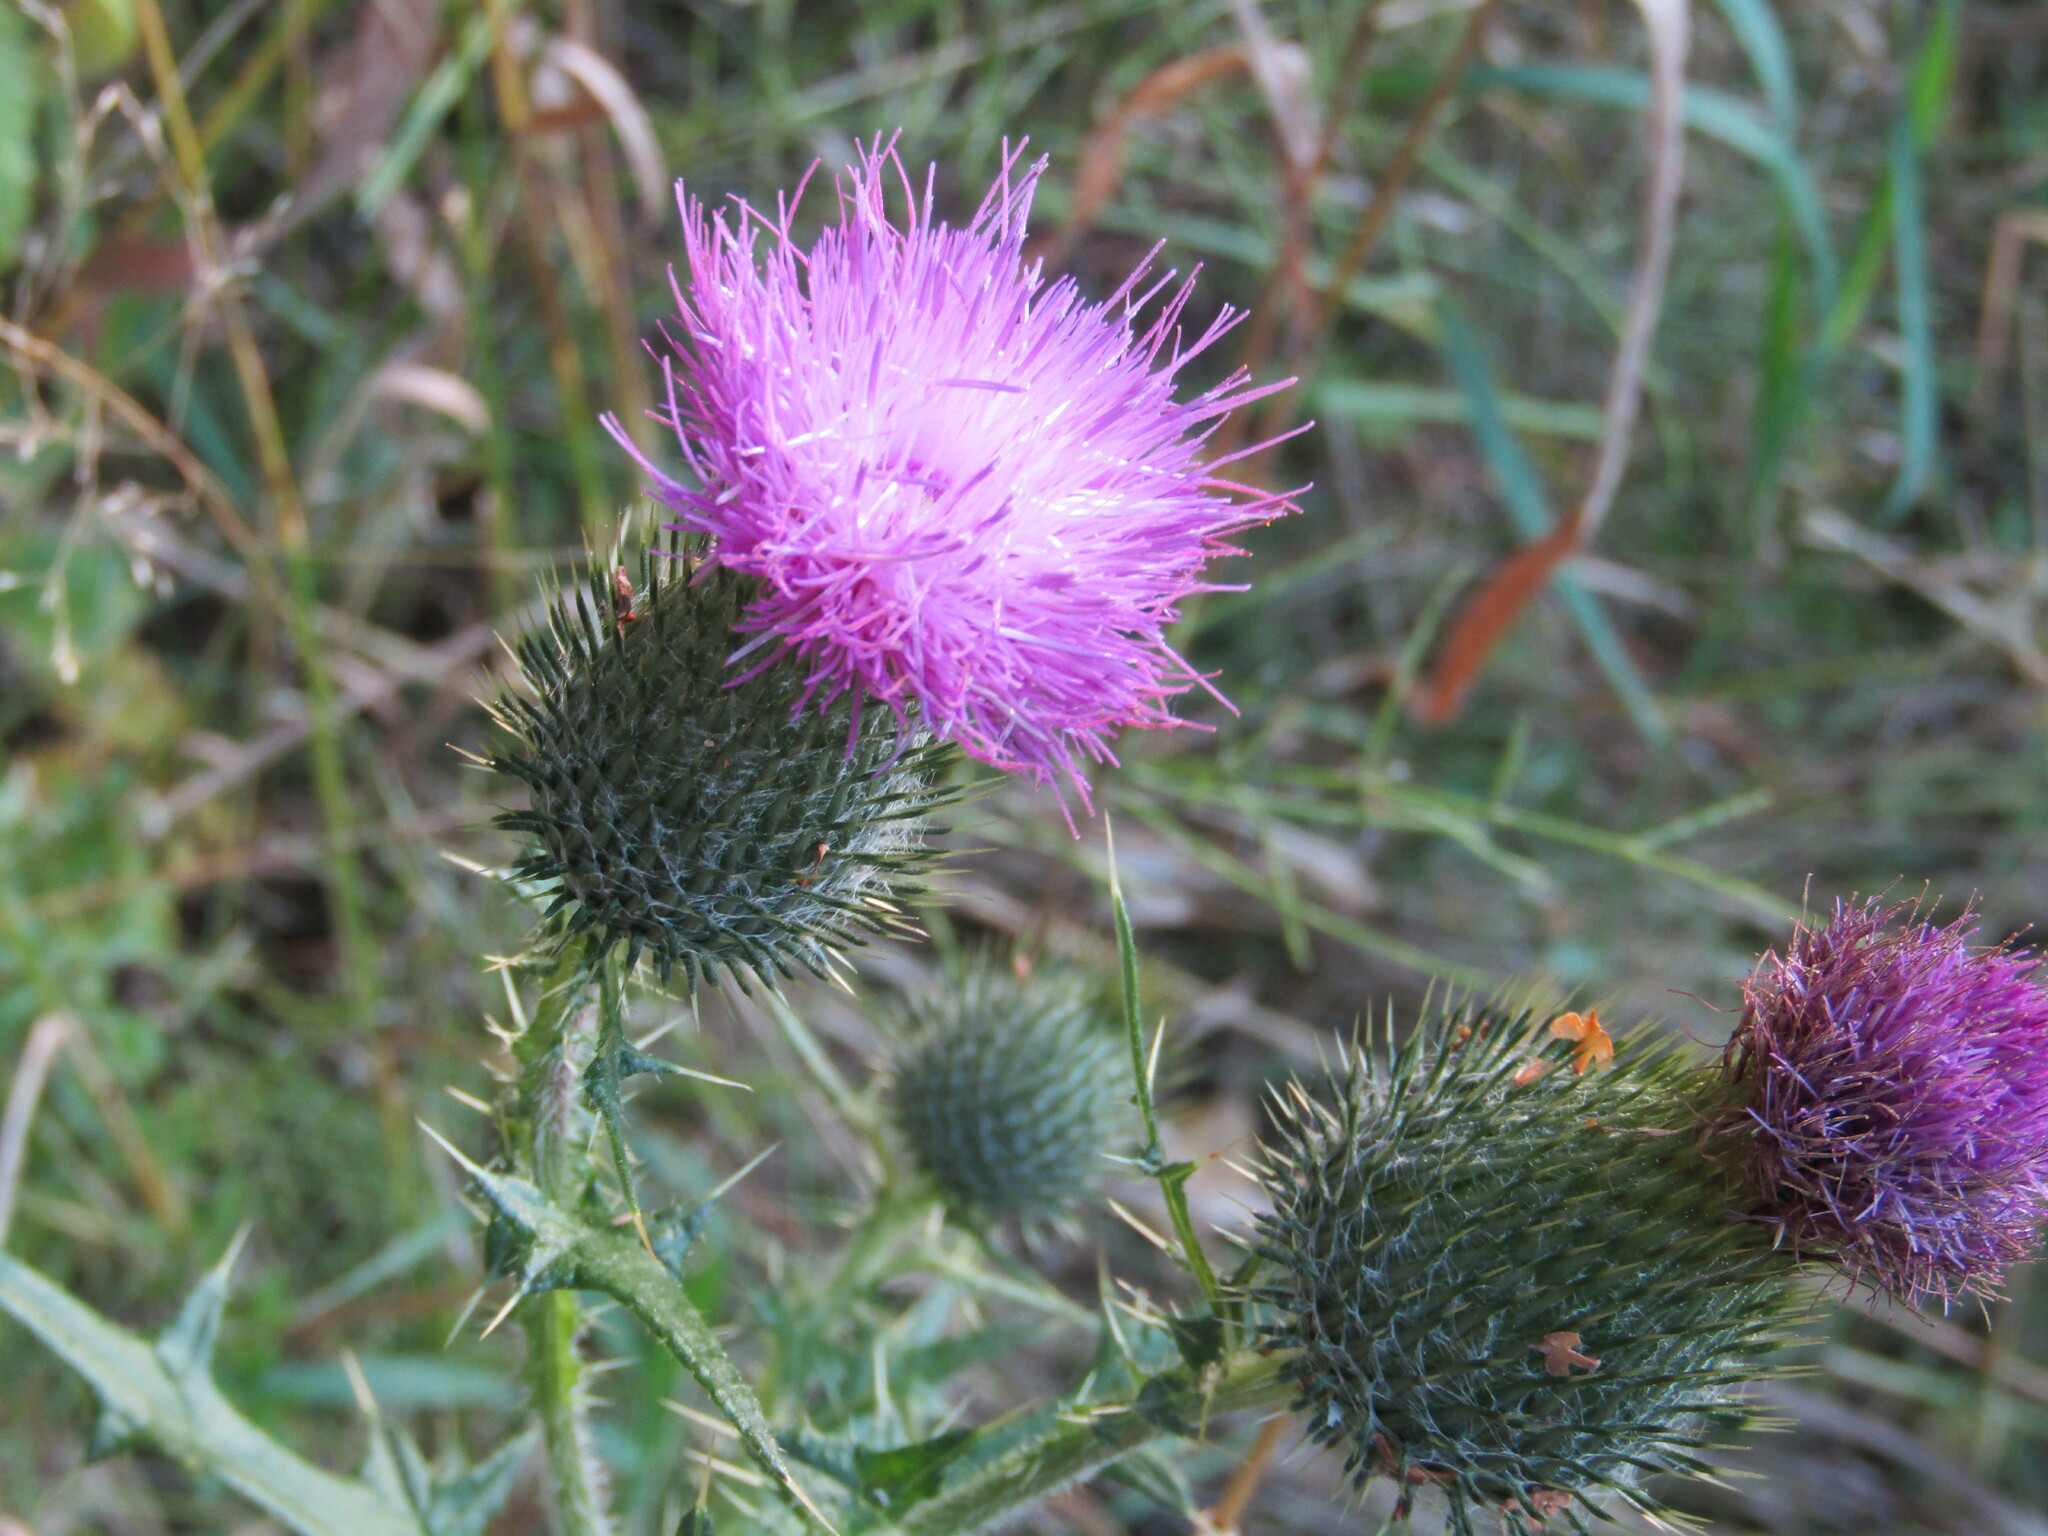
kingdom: Plantae
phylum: Tracheophyta
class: Magnoliopsida
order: Asterales
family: Asteraceae
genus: Cirsium
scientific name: Cirsium vulgare
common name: Bull thistle
